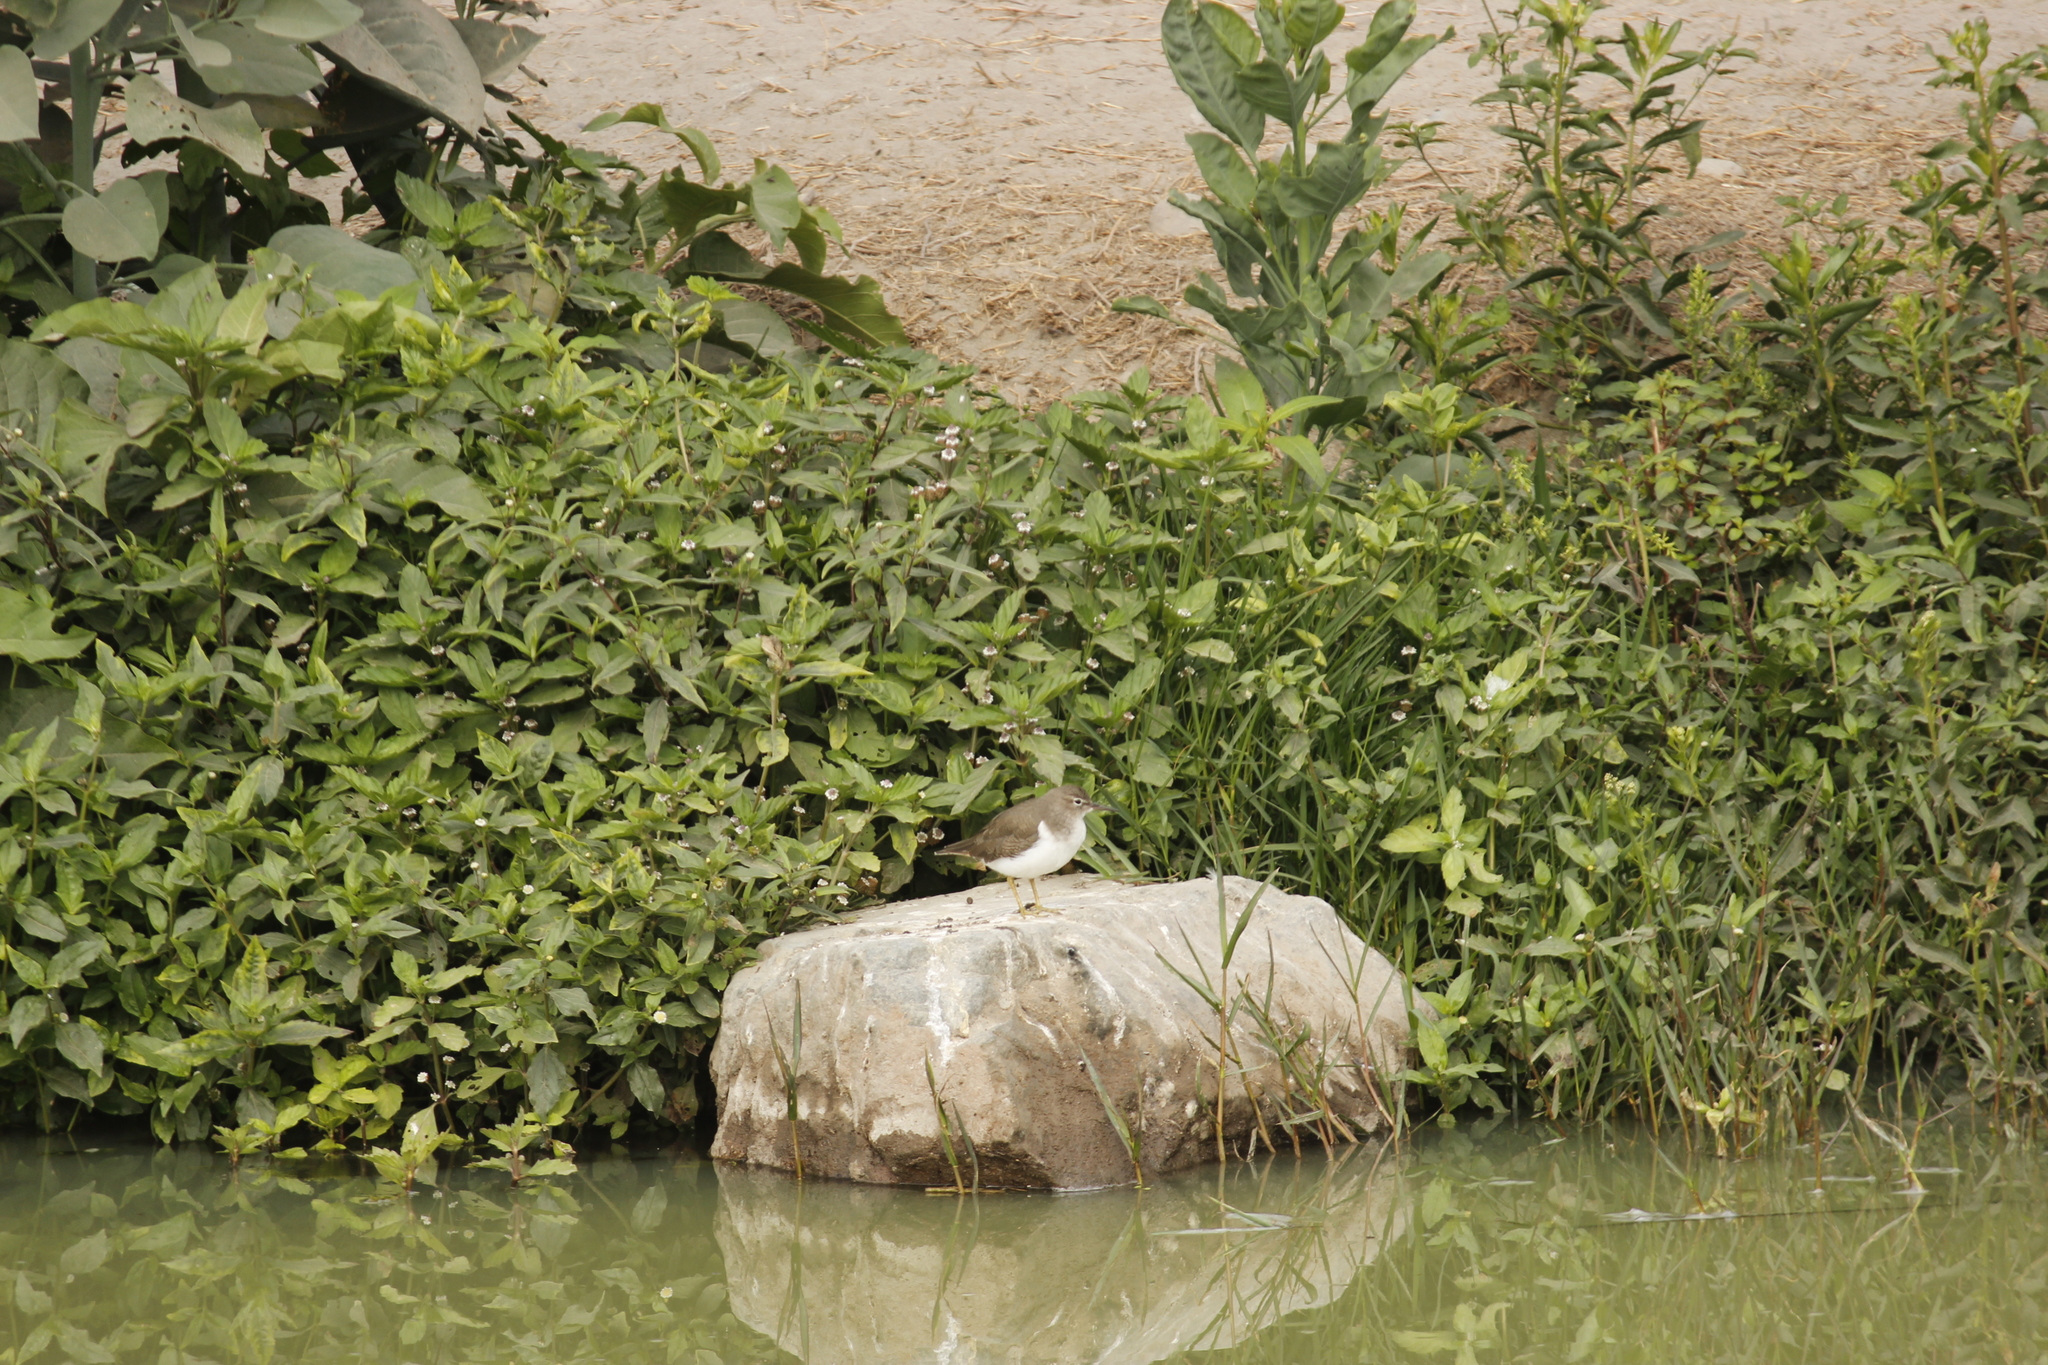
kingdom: Animalia
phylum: Chordata
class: Aves
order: Charadriiformes
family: Scolopacidae
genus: Actitis
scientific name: Actitis macularius
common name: Spotted sandpiper
